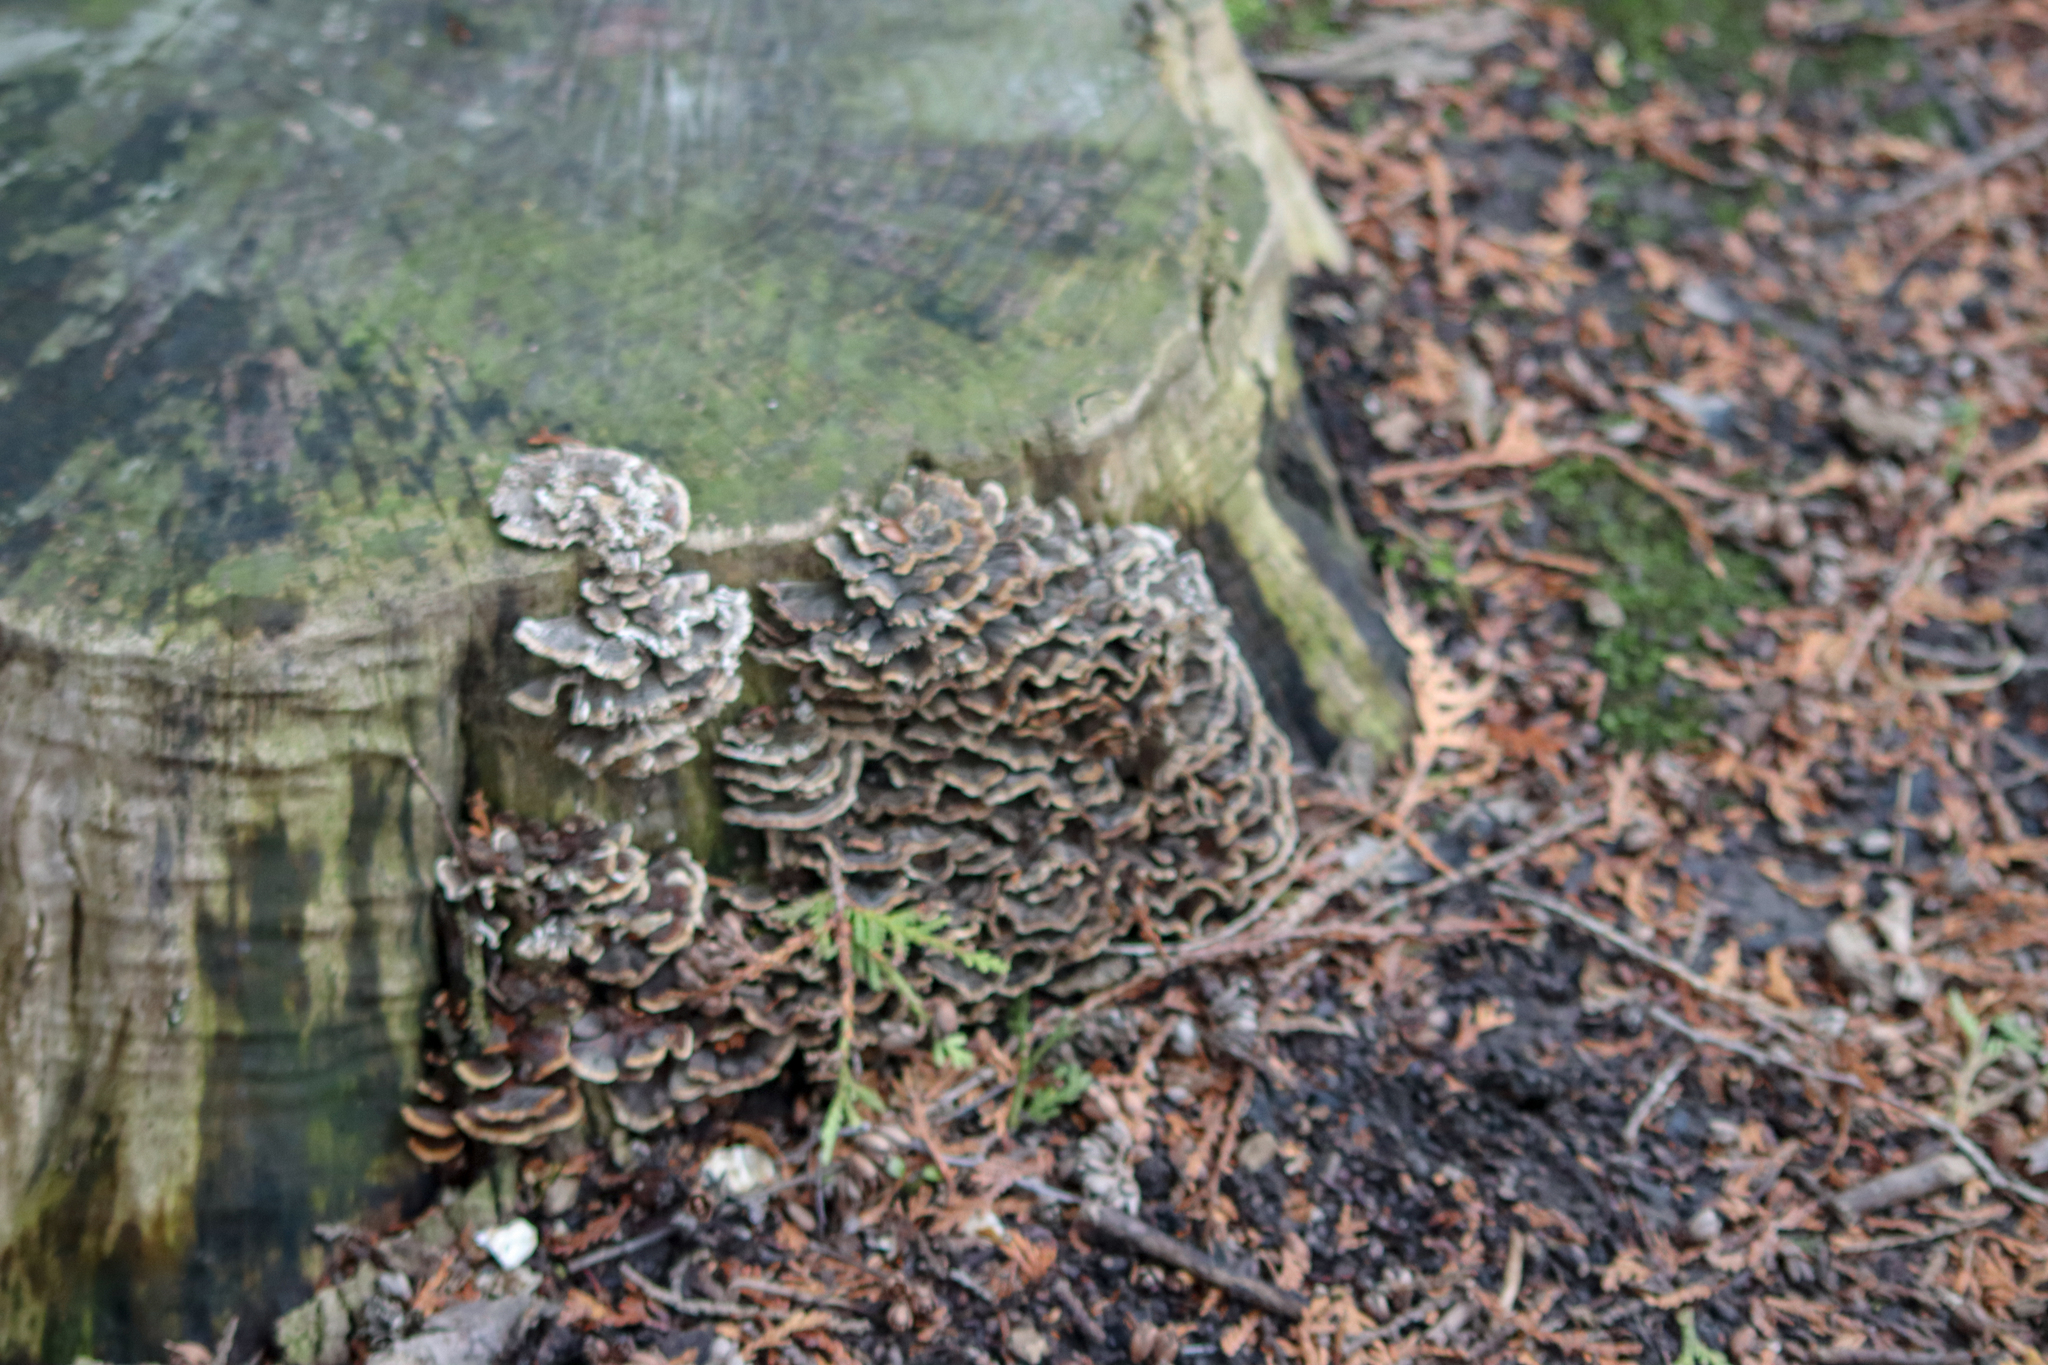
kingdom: Fungi
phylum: Basidiomycota
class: Agaricomycetes
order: Polyporales
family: Polyporaceae
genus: Trametes
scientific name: Trametes versicolor
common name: Turkeytail
